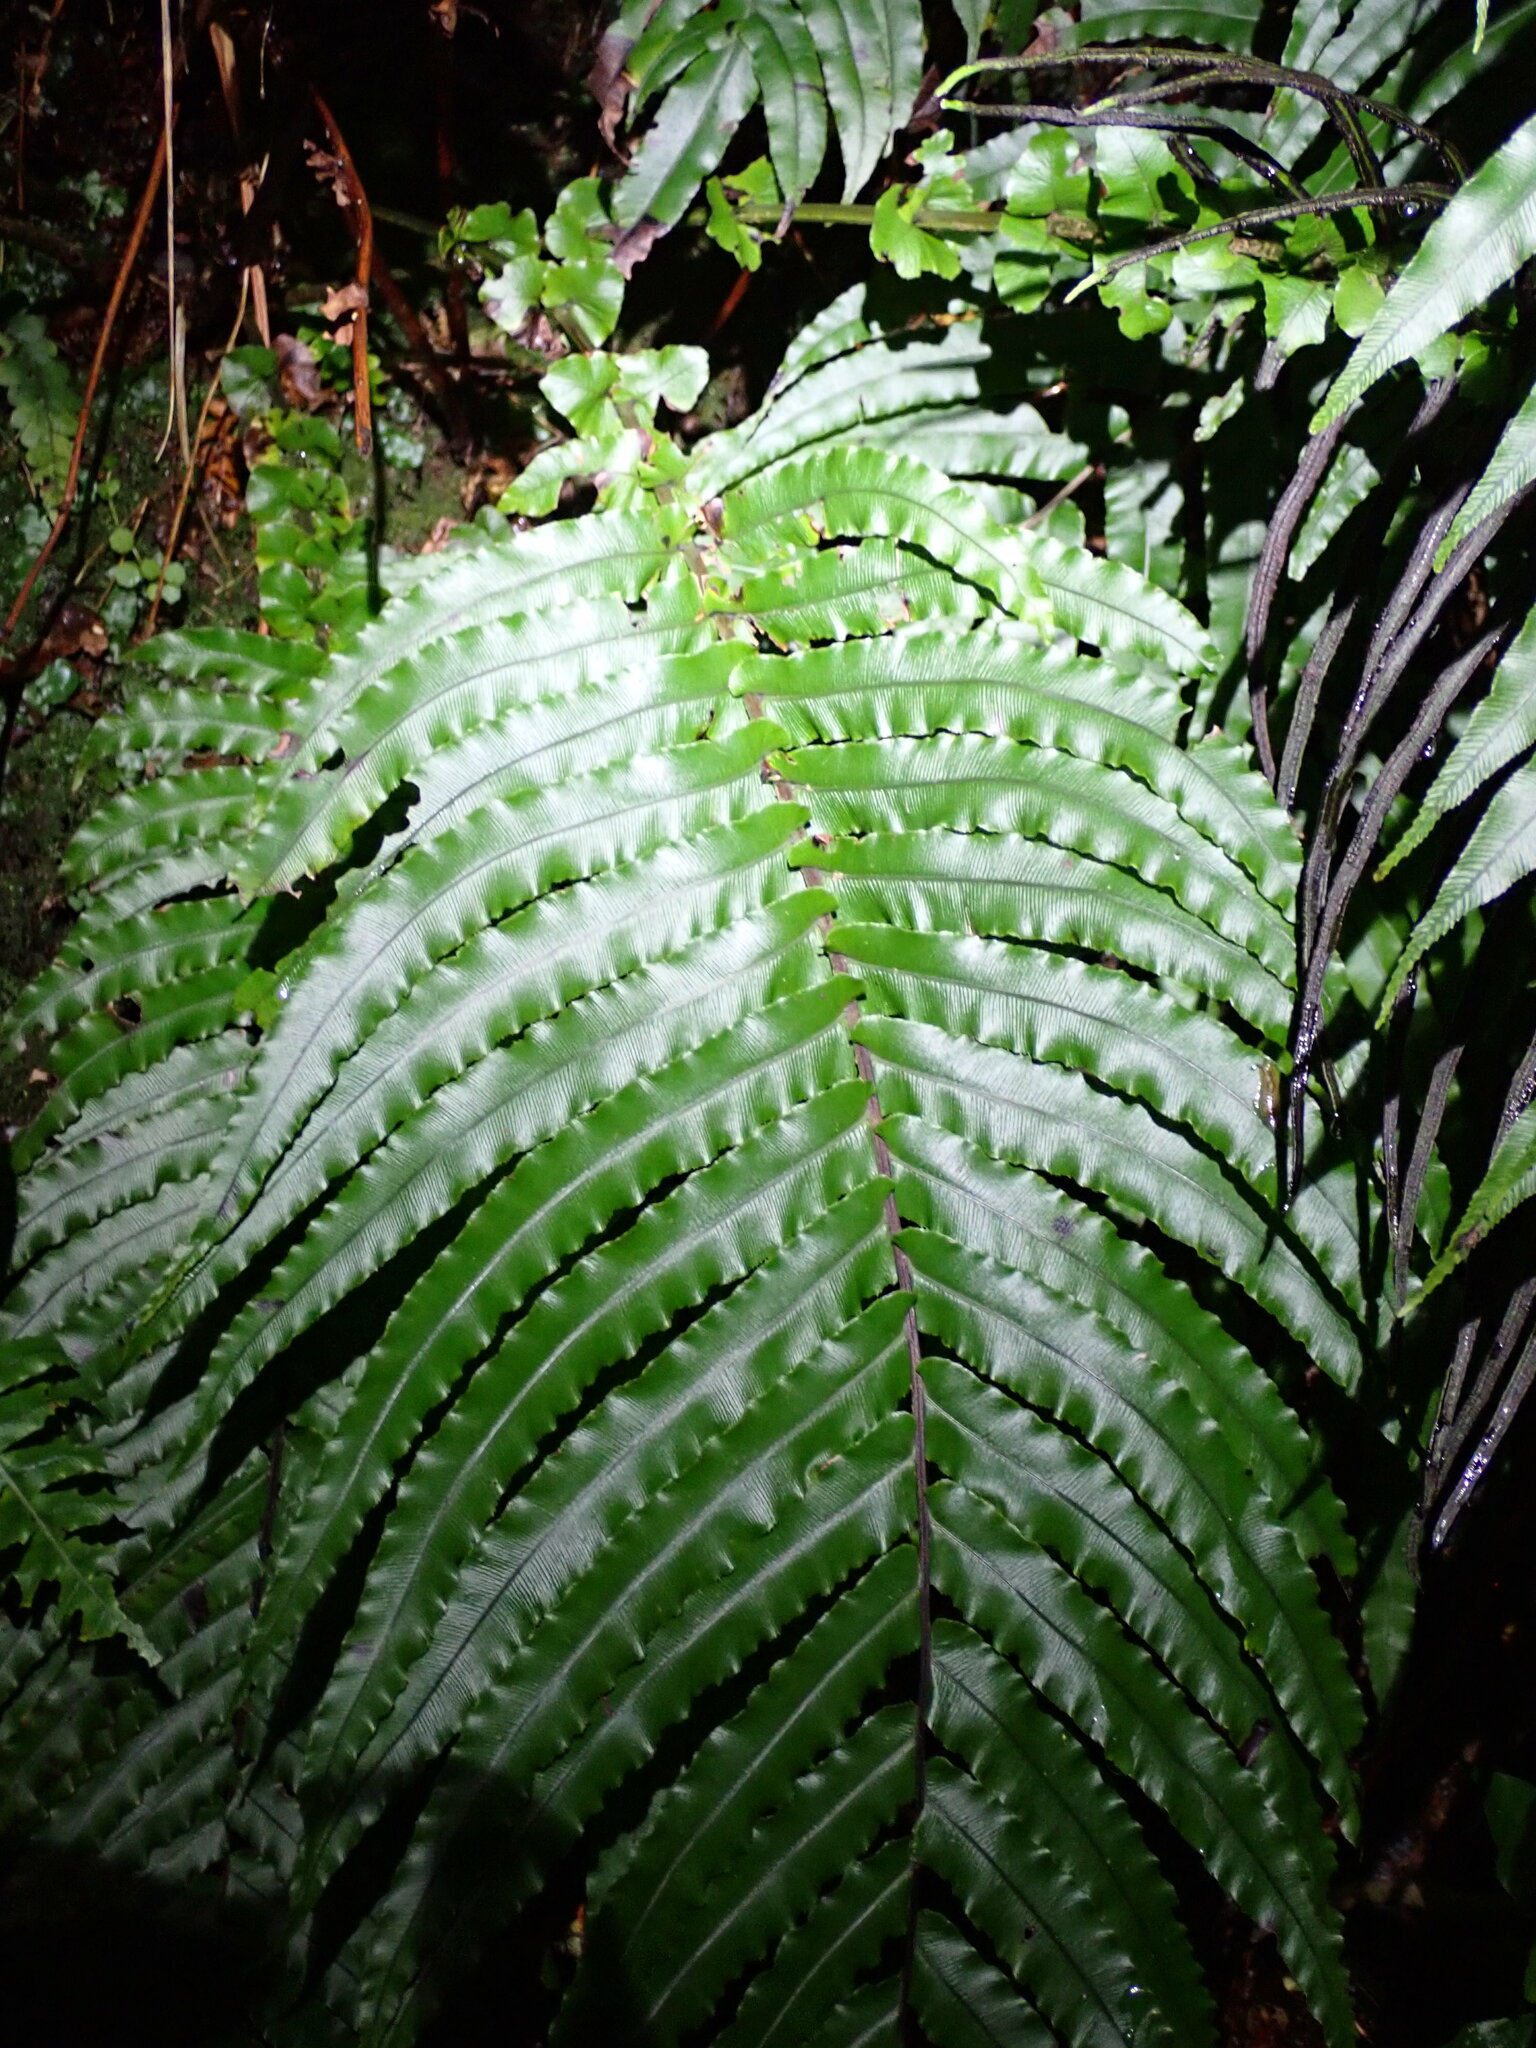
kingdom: Plantae
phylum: Tracheophyta
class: Polypodiopsida
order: Polypodiales
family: Blechnaceae
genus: Parablechnum
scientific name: Parablechnum novae-zelandiae
